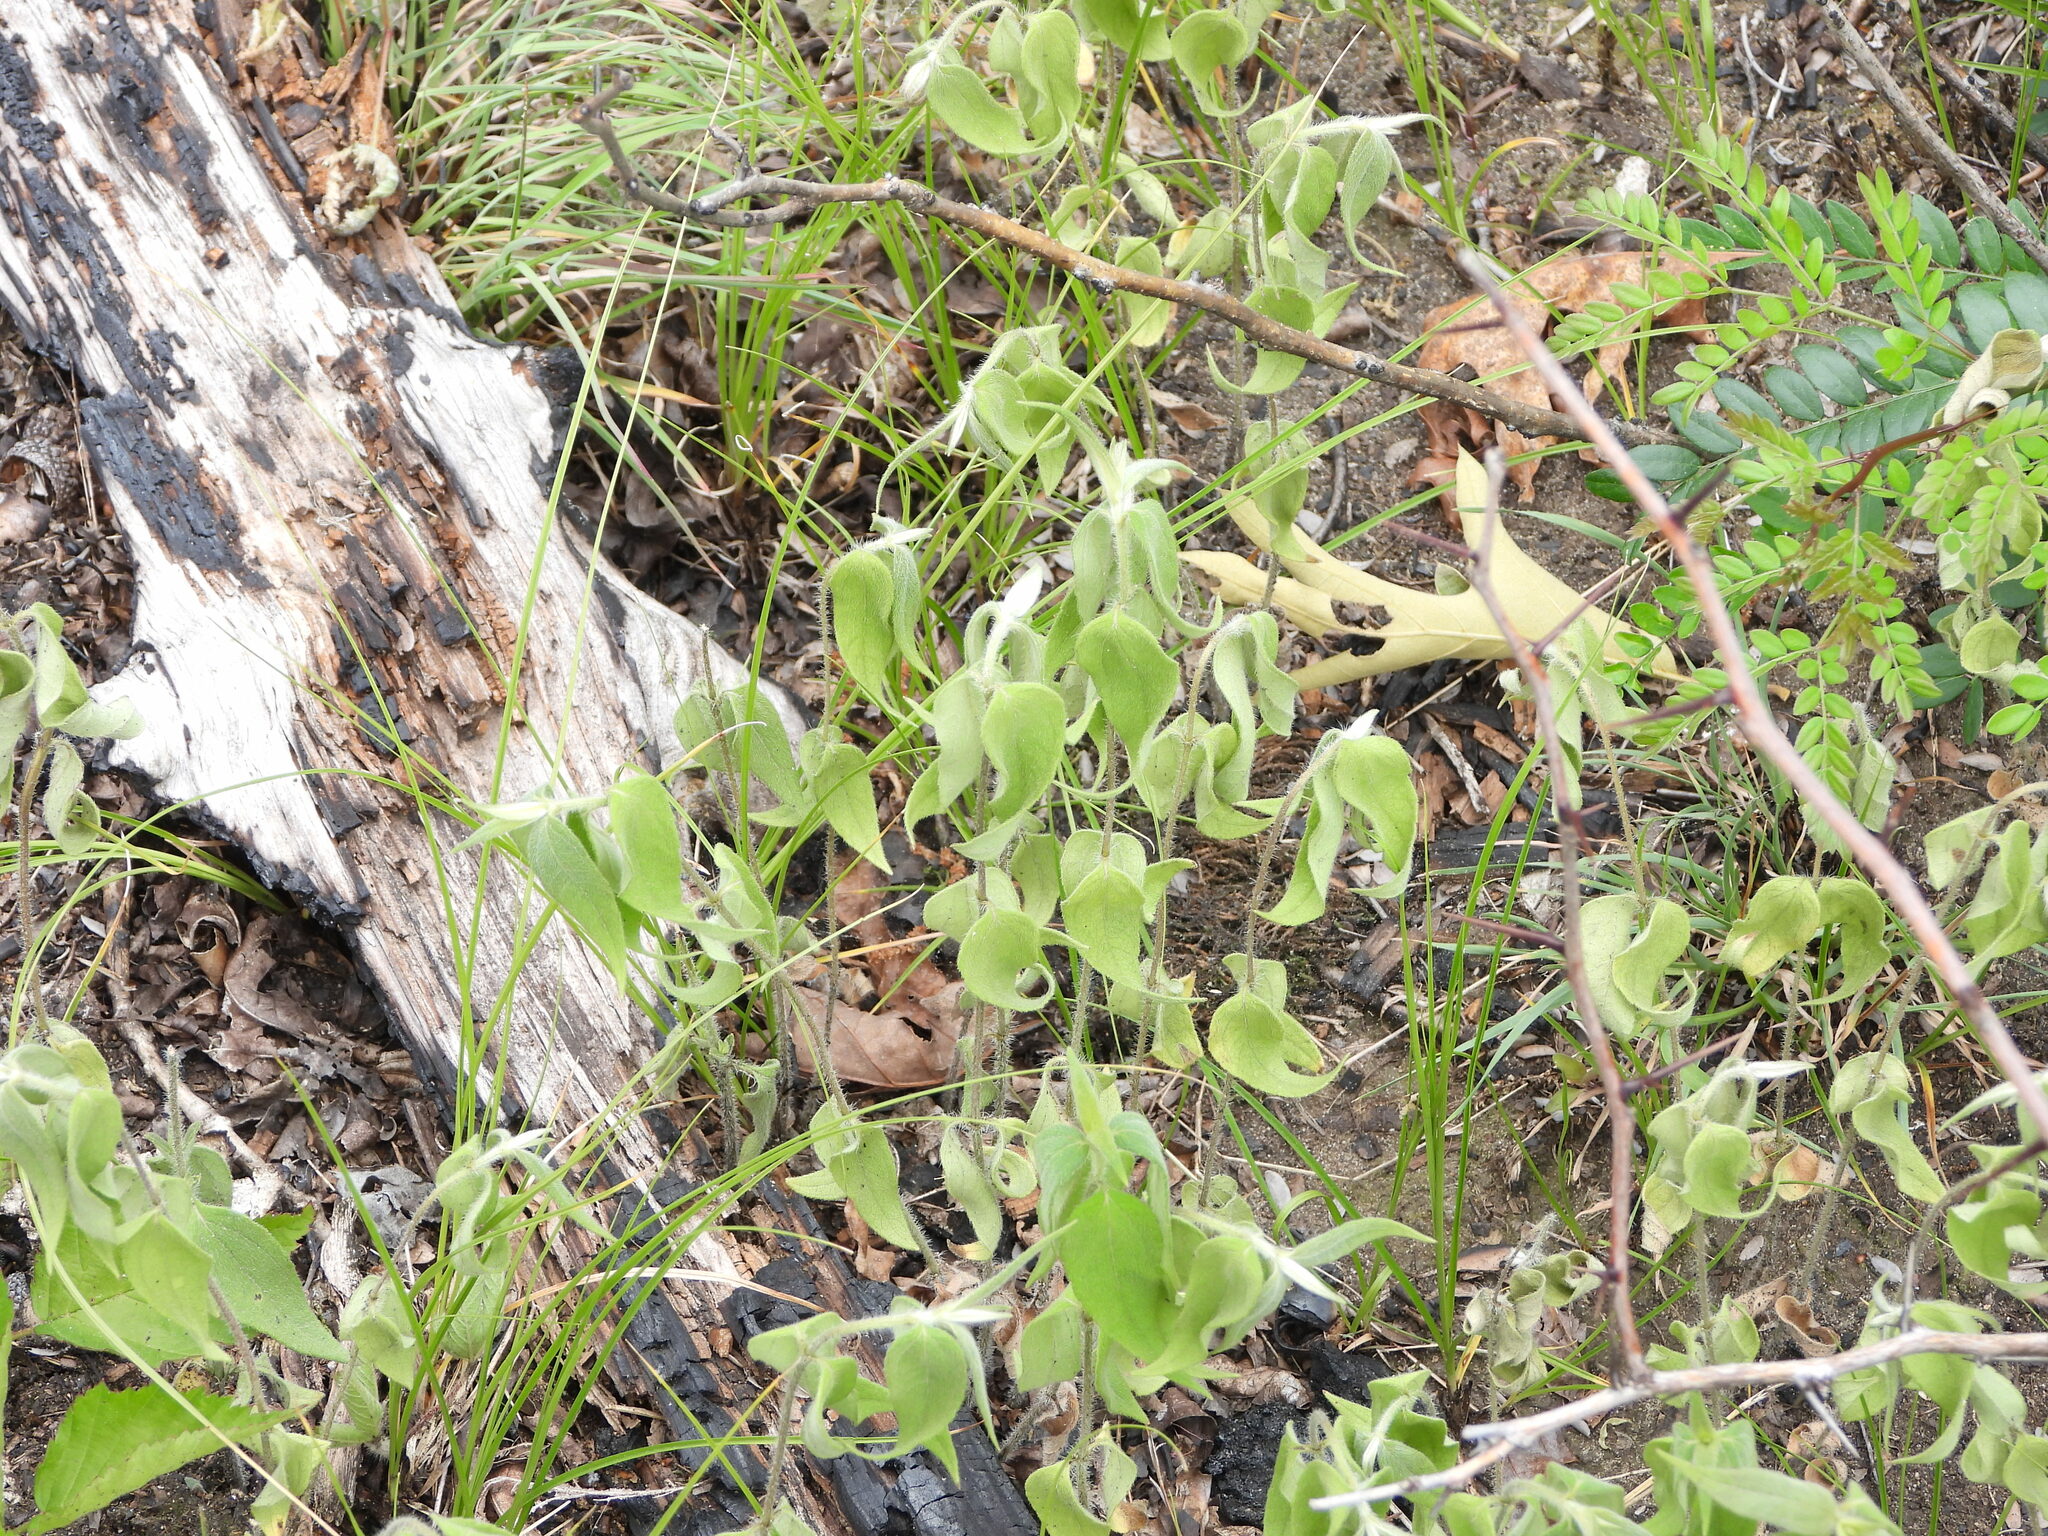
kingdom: Plantae
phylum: Tracheophyta
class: Magnoliopsida
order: Asterales
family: Asteraceae
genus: Helianthus
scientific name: Helianthus hirsutus
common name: Hairy sunflower
